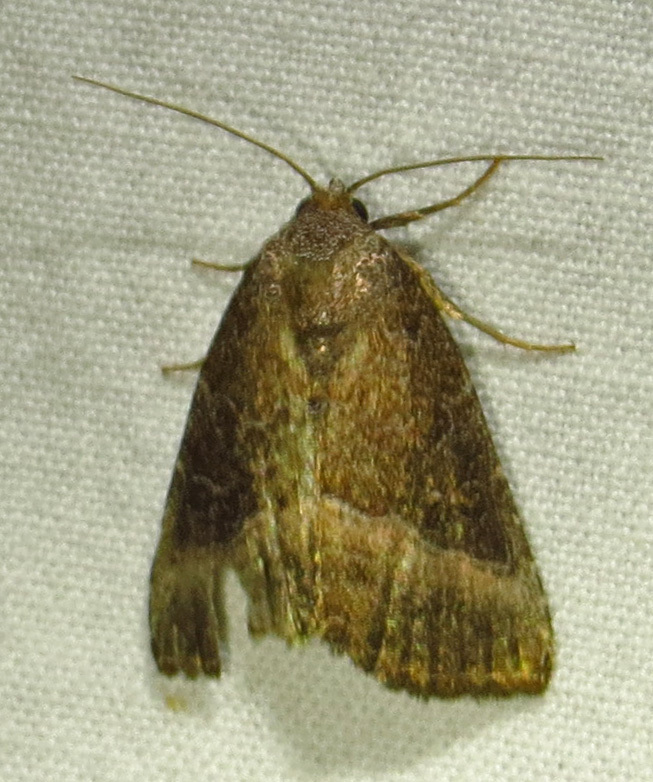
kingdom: Animalia
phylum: Arthropoda
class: Insecta
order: Lepidoptera
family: Noctuidae
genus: Ogdoconta
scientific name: Ogdoconta cinereola
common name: Common pinkband
